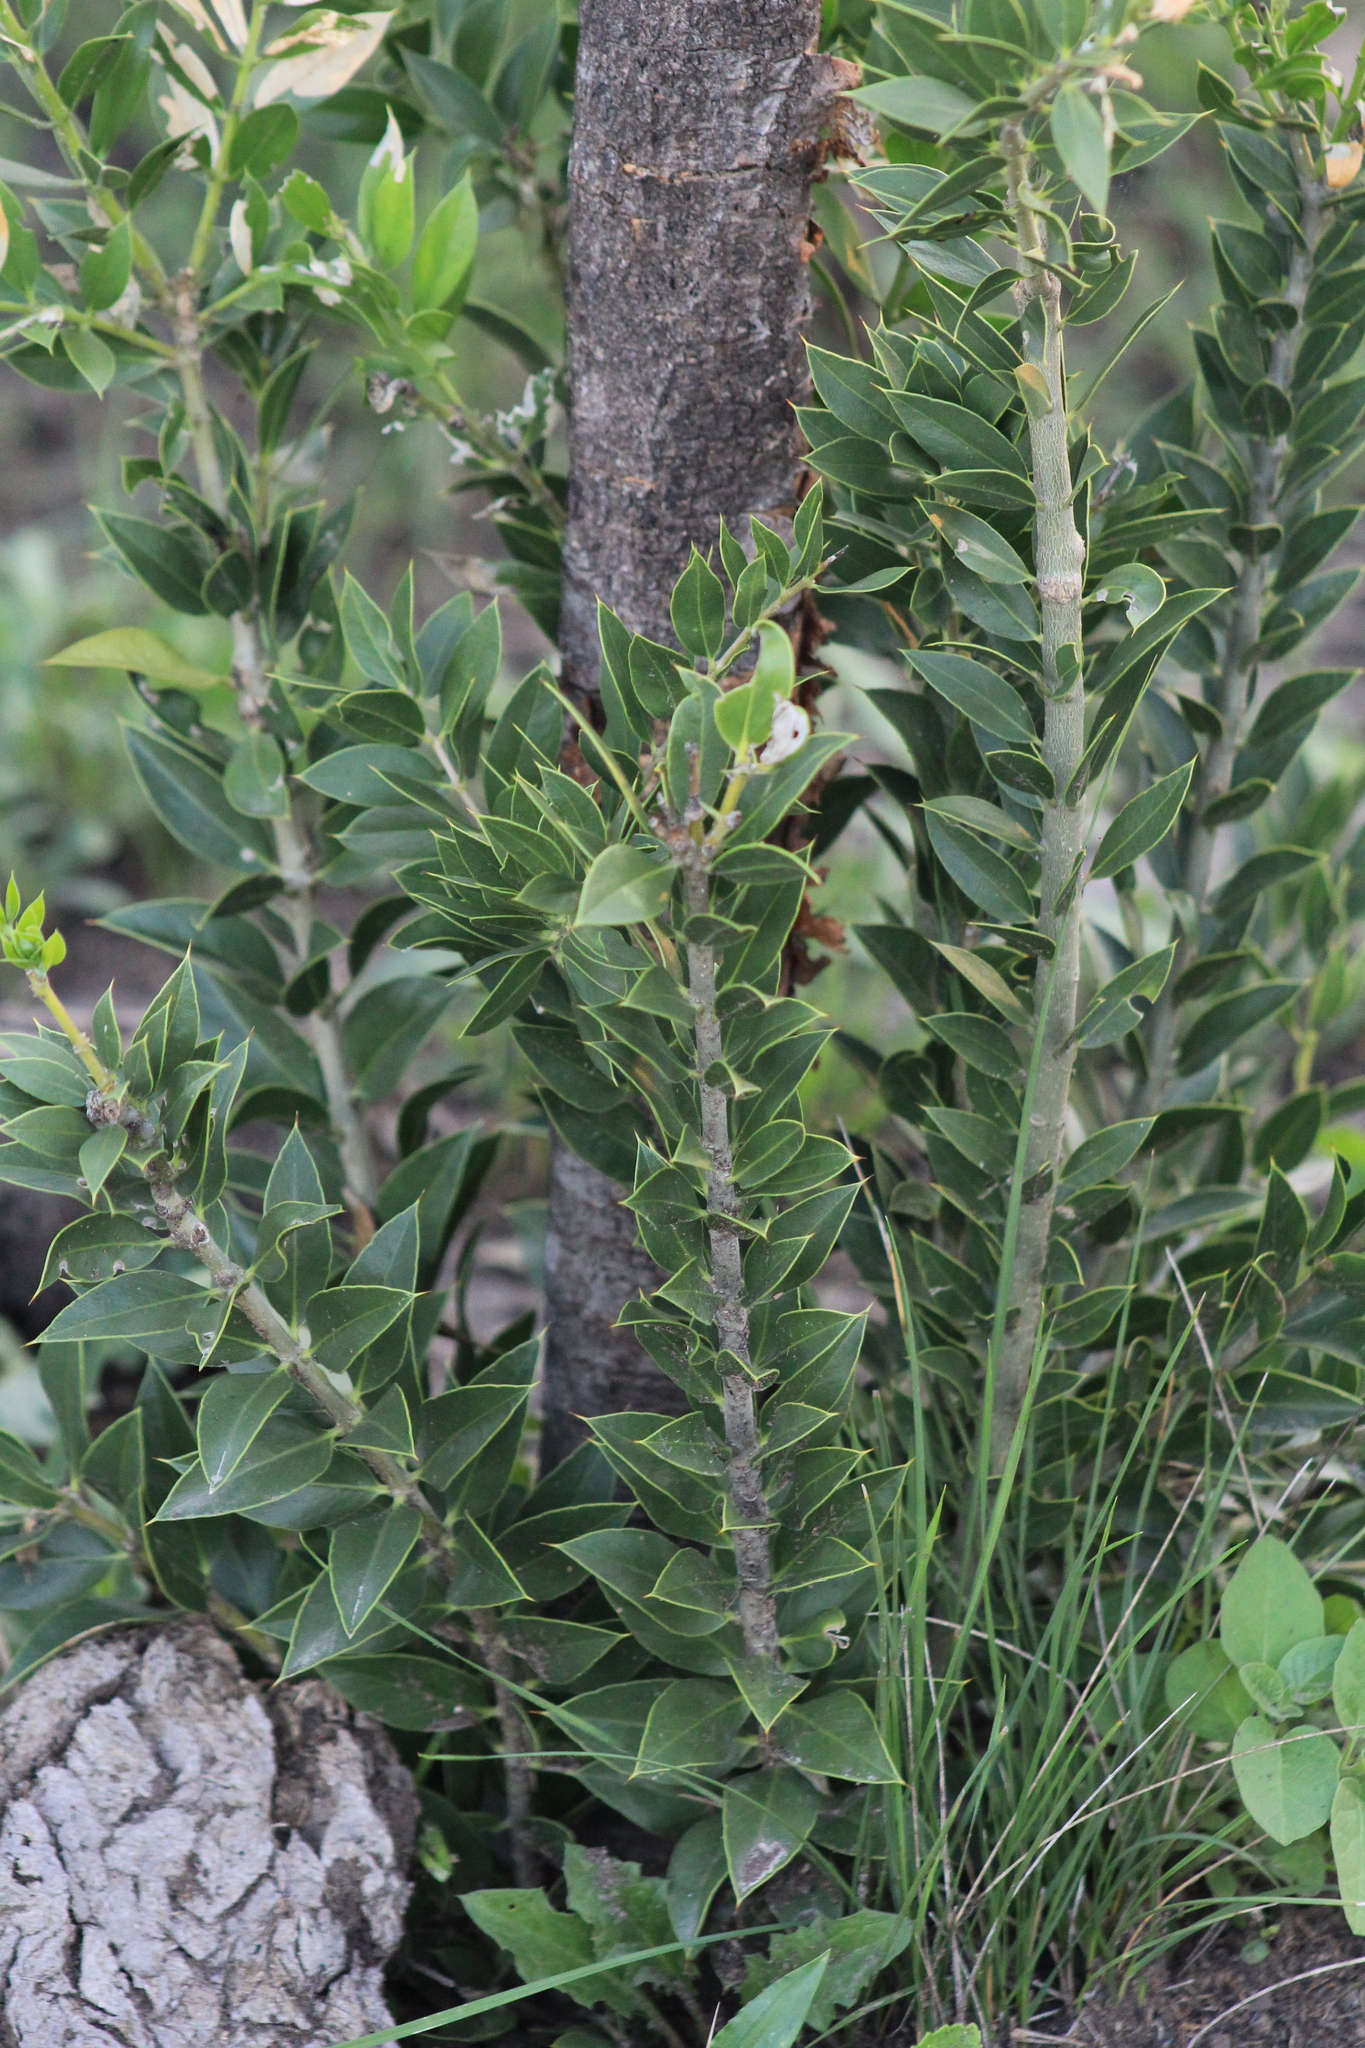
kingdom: Plantae
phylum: Tracheophyta
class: Magnoliopsida
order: Gentianales
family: Apocynaceae
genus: Aspidosperma
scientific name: Aspidosperma quebracho-blanco
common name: White quebracho
